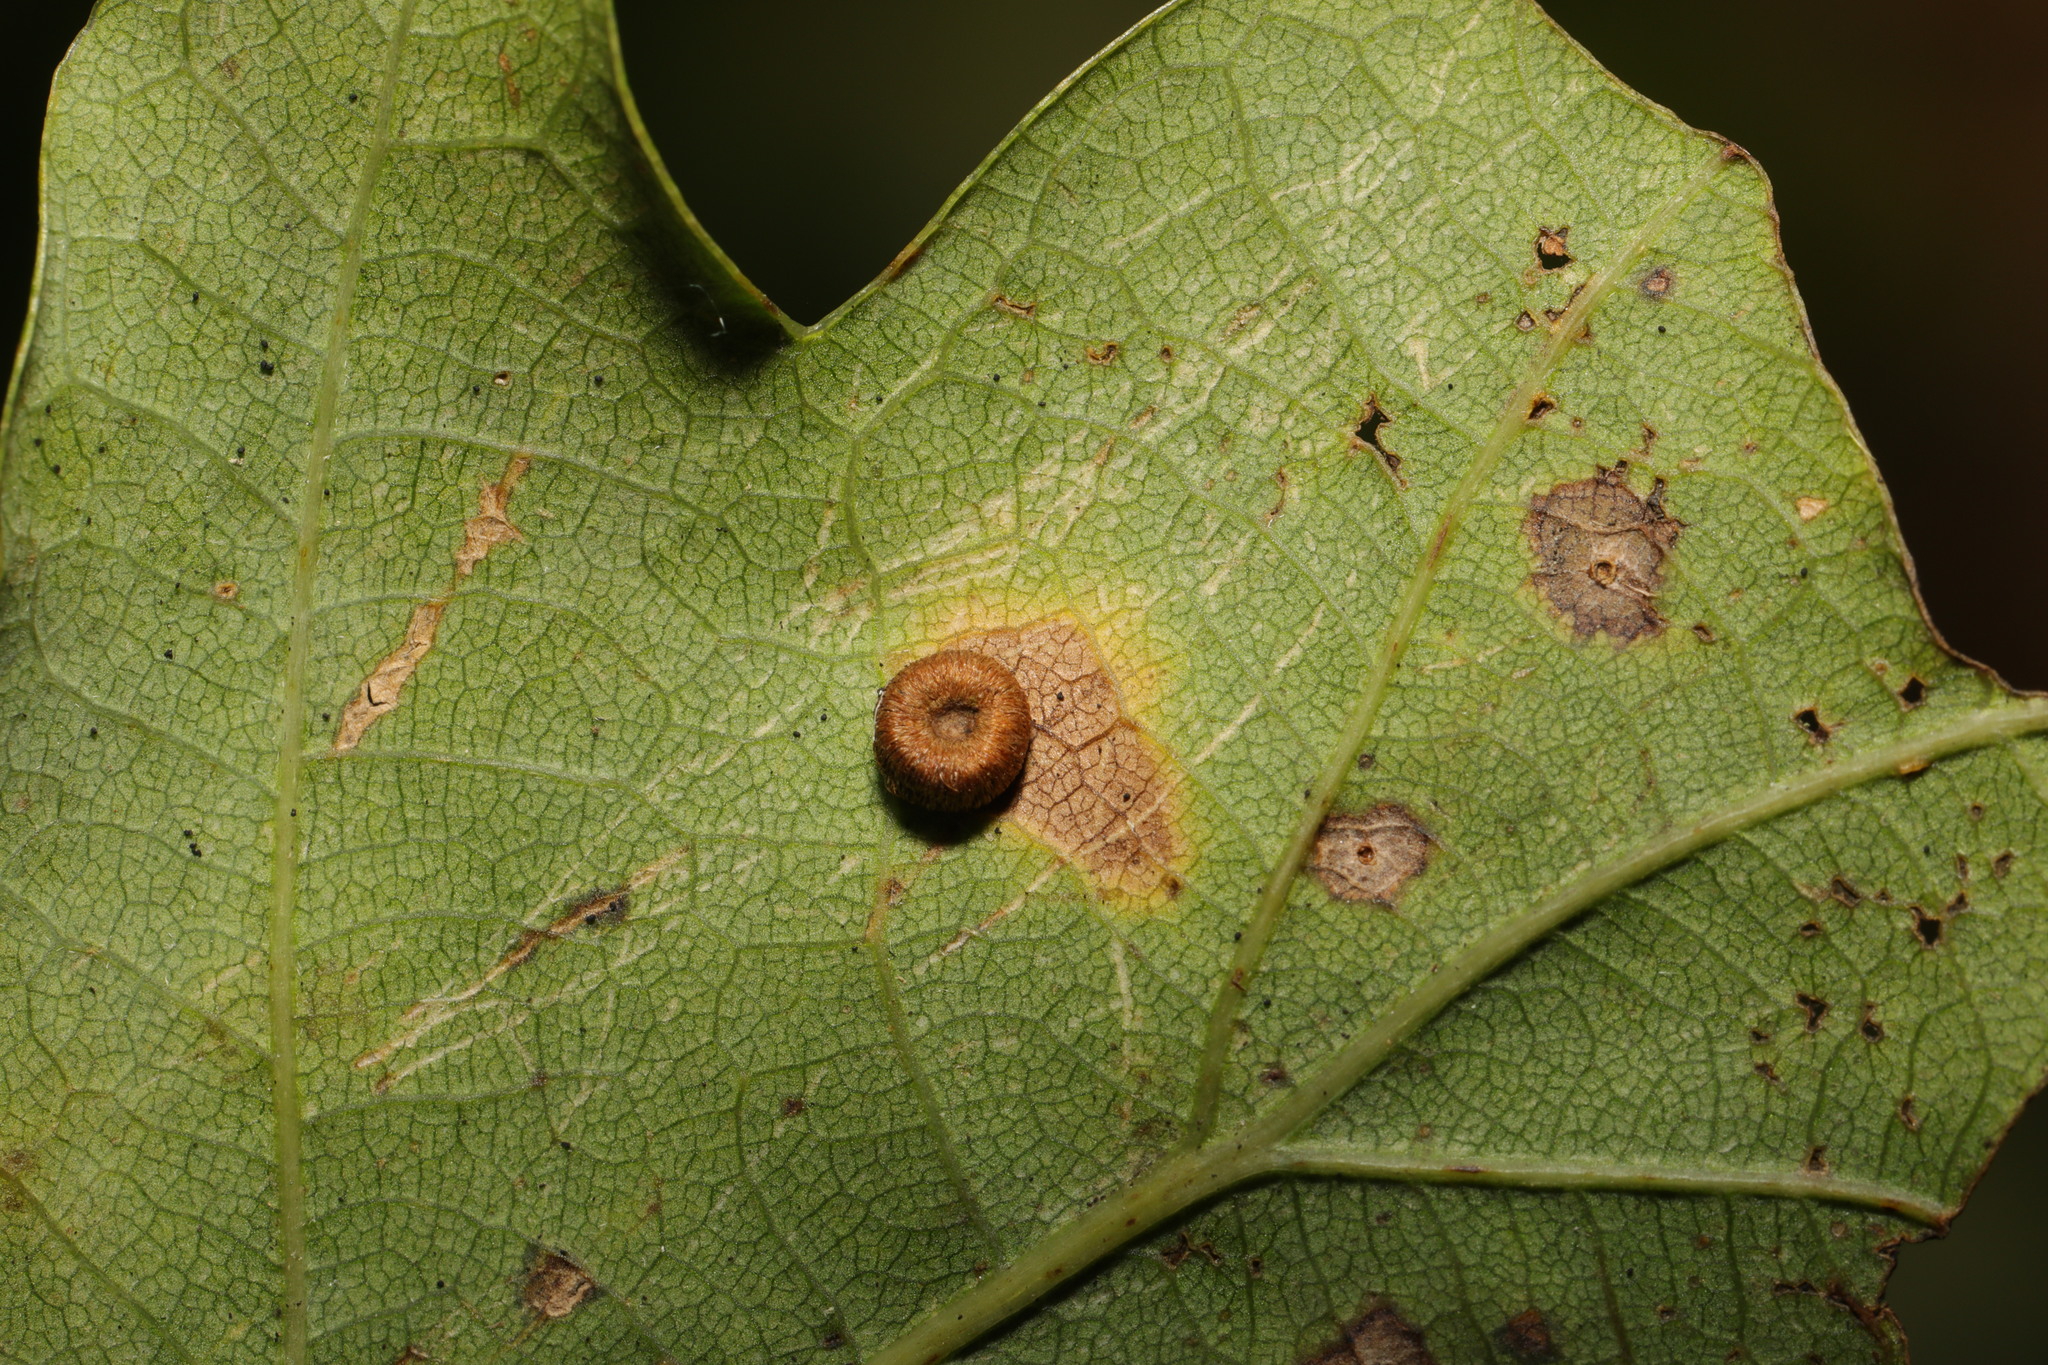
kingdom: Animalia
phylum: Arthropoda
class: Insecta
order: Hymenoptera
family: Cynipidae
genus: Neuroterus
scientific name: Neuroterus numismalis
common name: Silk-button spangle gall
